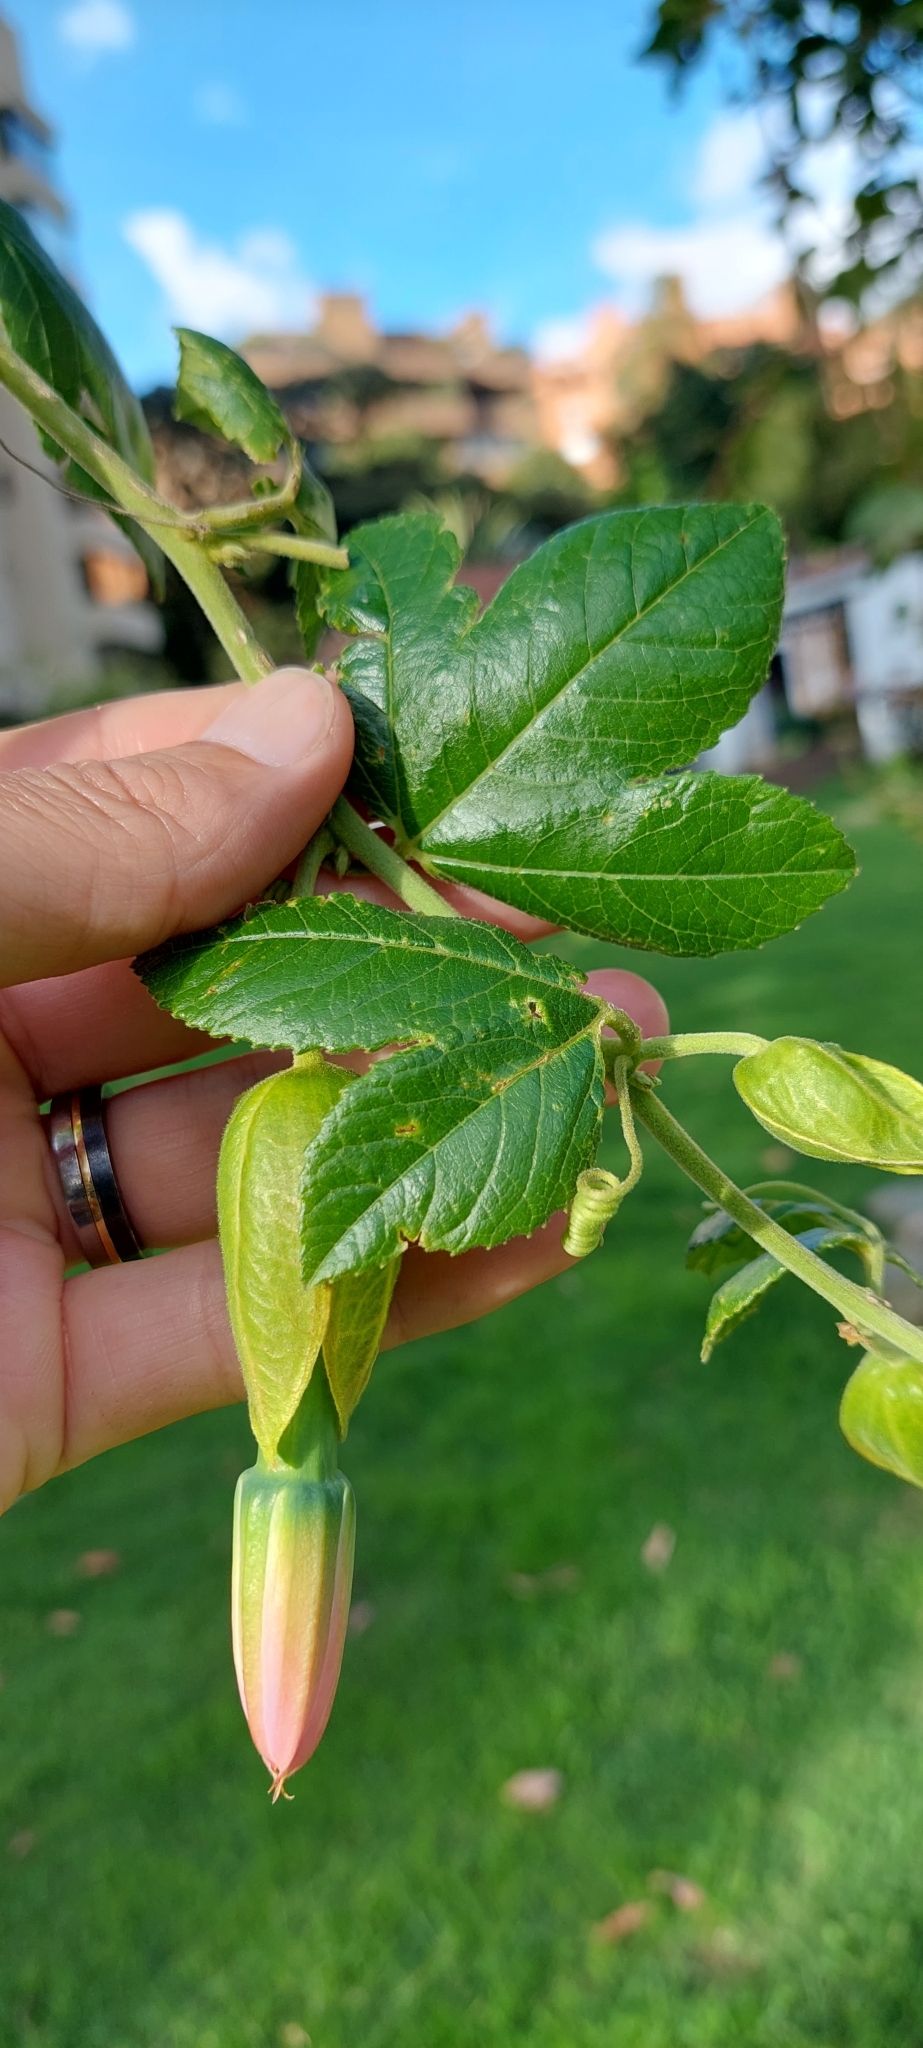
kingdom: Plantae
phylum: Tracheophyta
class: Magnoliopsida
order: Malpighiales
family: Passifloraceae
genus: Passiflora
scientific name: Passiflora tarminiana
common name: Banana poka
